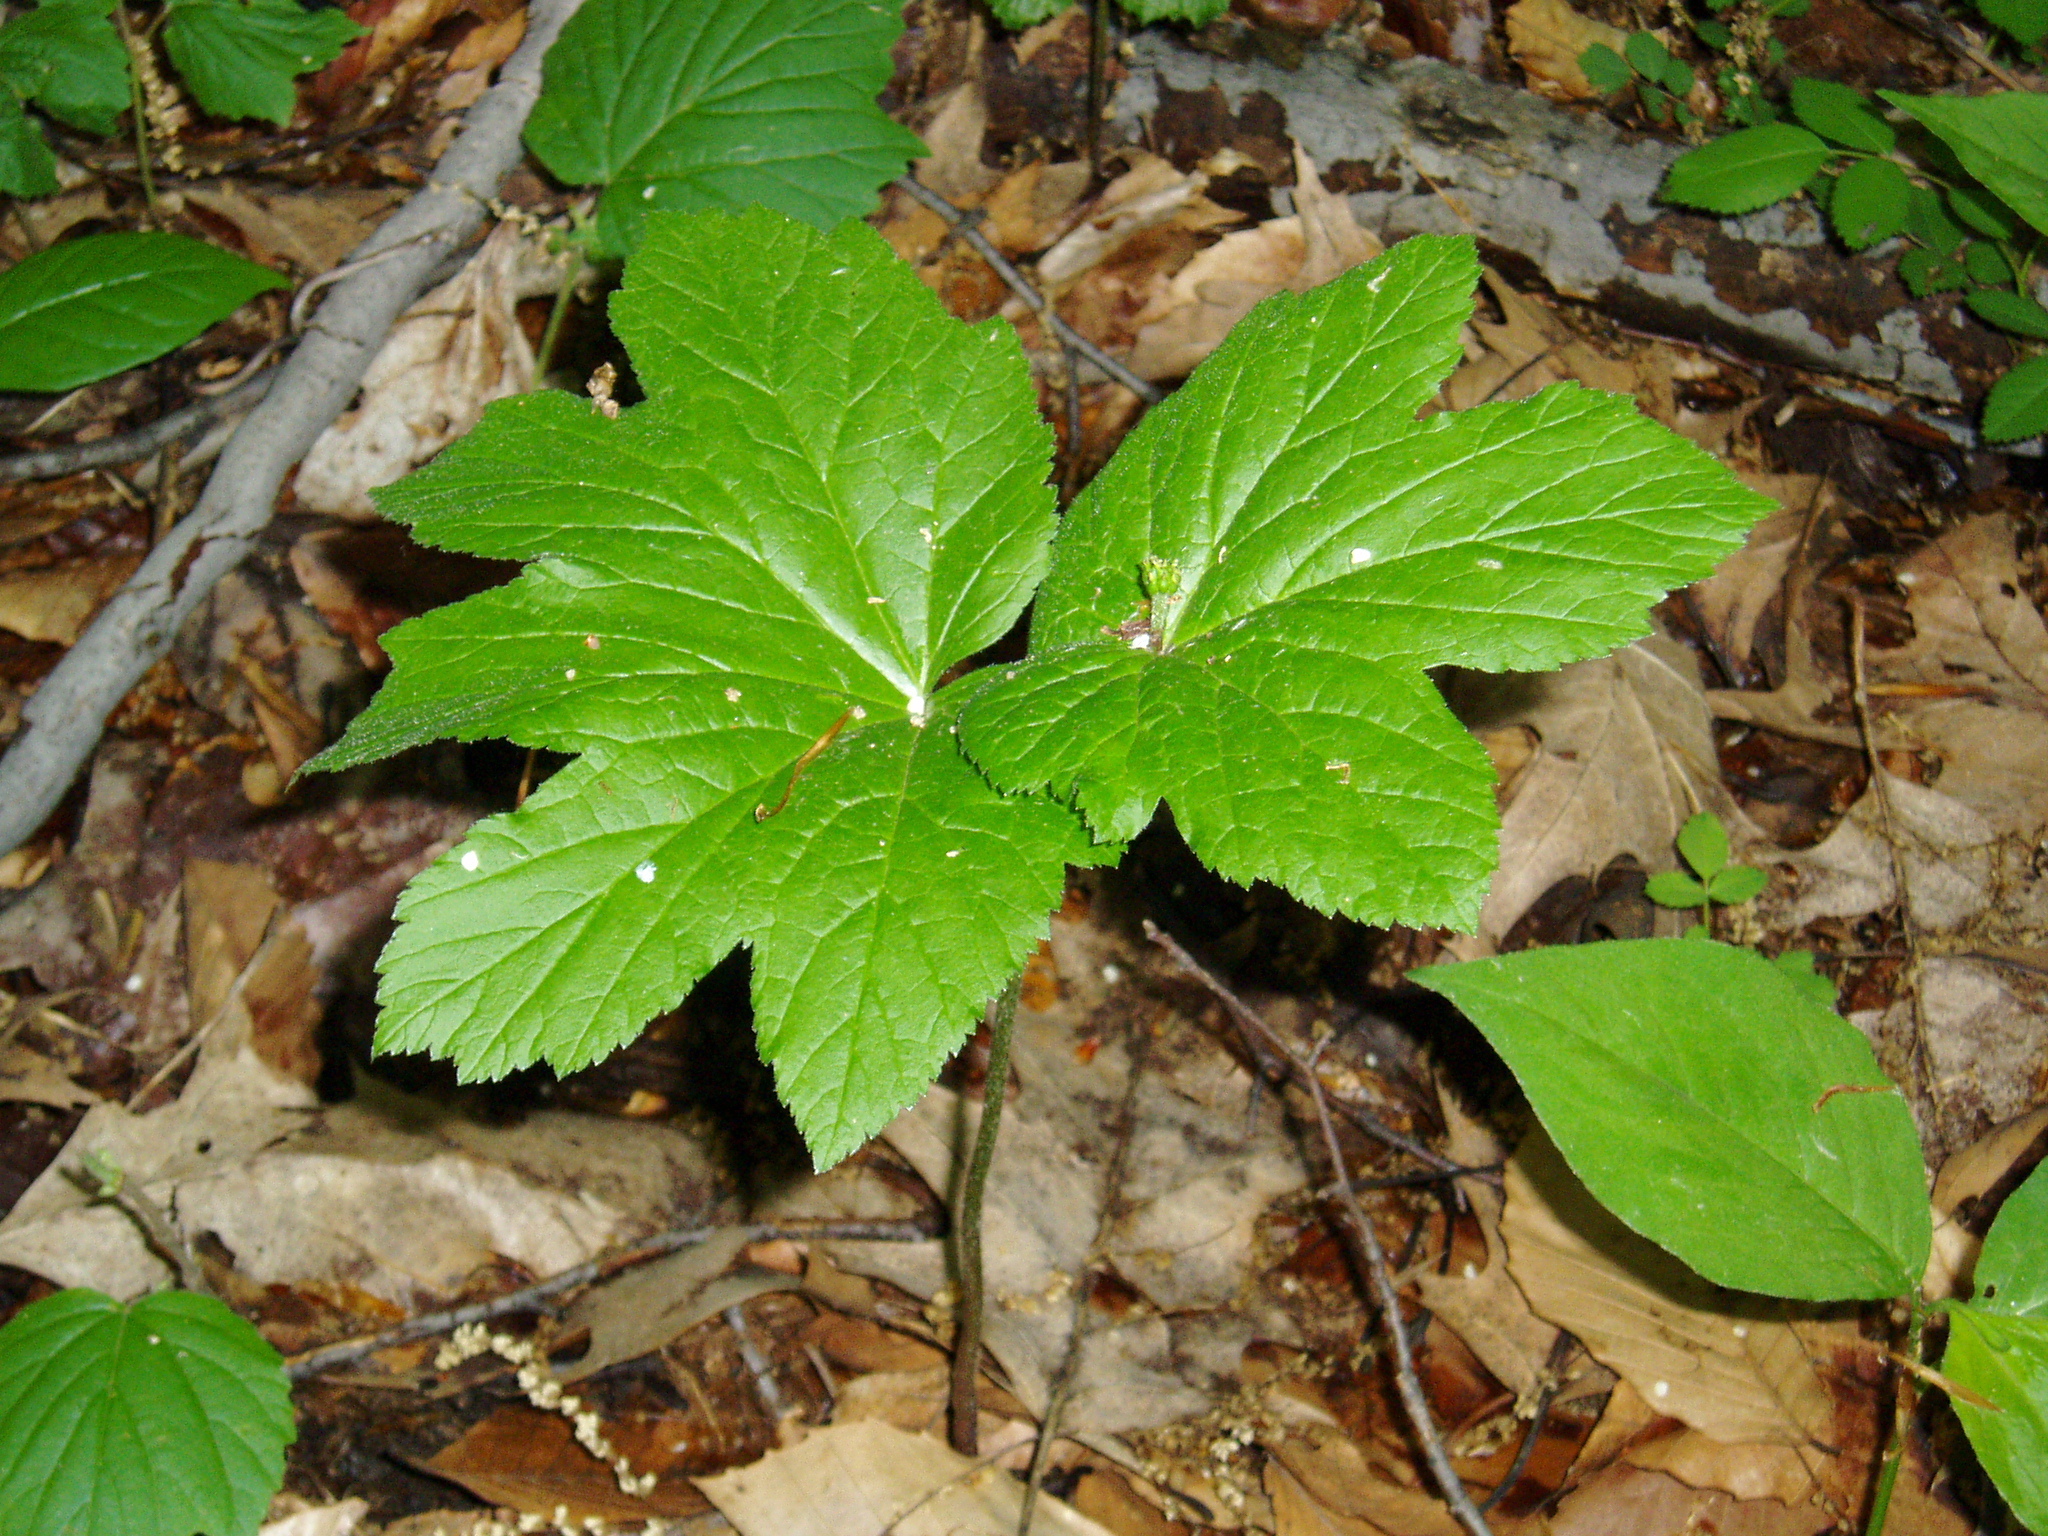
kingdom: Plantae
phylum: Tracheophyta
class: Magnoliopsida
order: Ranunculales
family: Ranunculaceae
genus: Hydrastis
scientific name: Hydrastis canadensis
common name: Goldenseal
